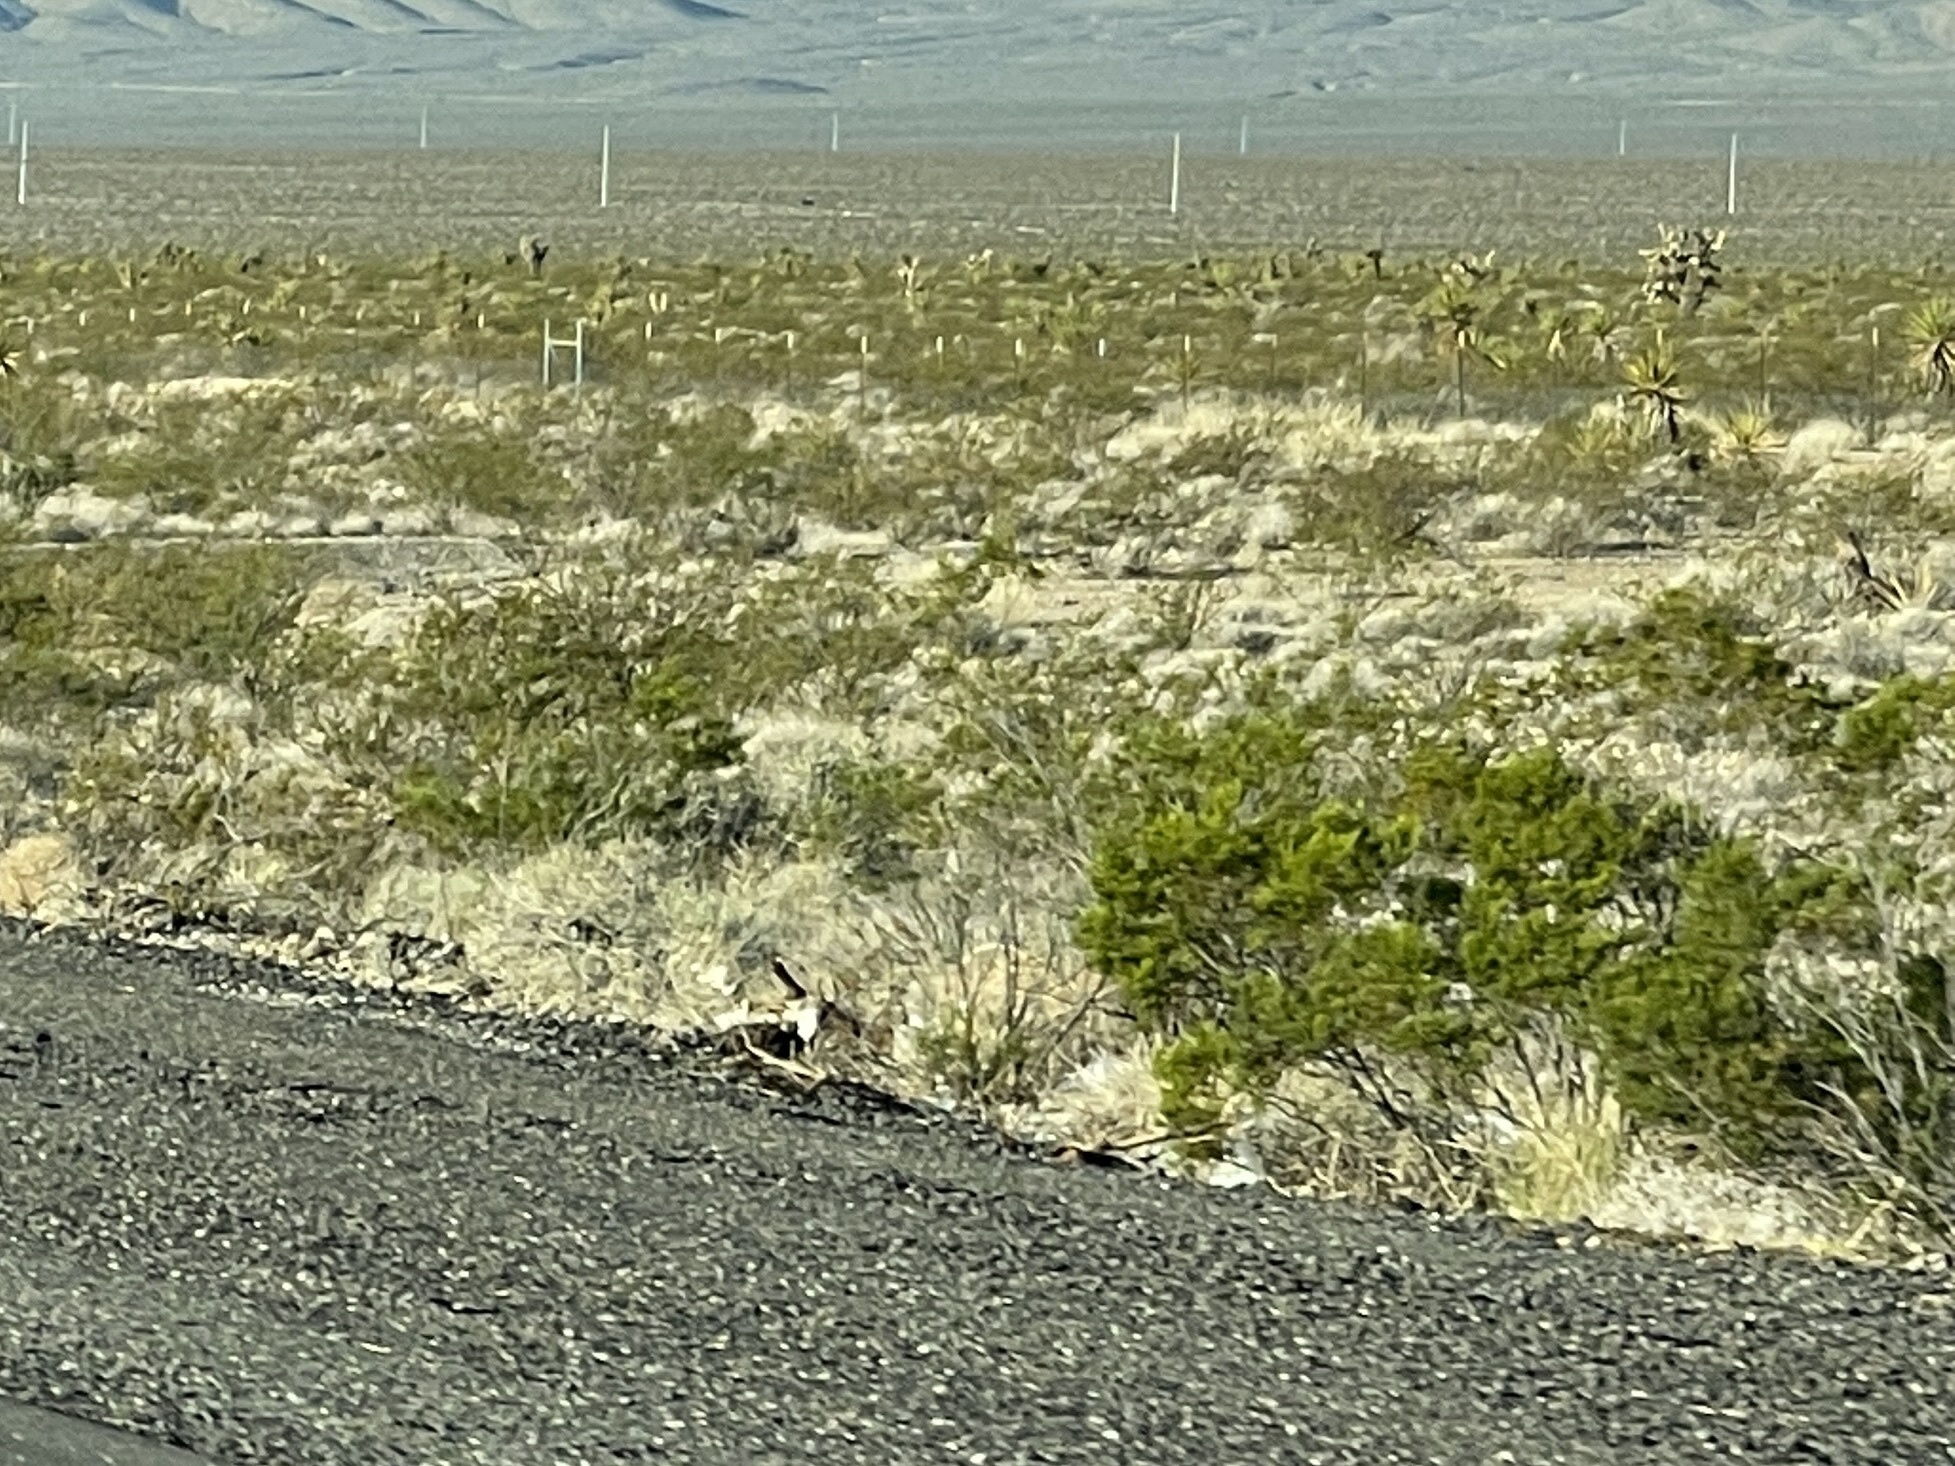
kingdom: Plantae
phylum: Tracheophyta
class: Magnoliopsida
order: Zygophyllales
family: Zygophyllaceae
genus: Larrea
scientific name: Larrea tridentata
